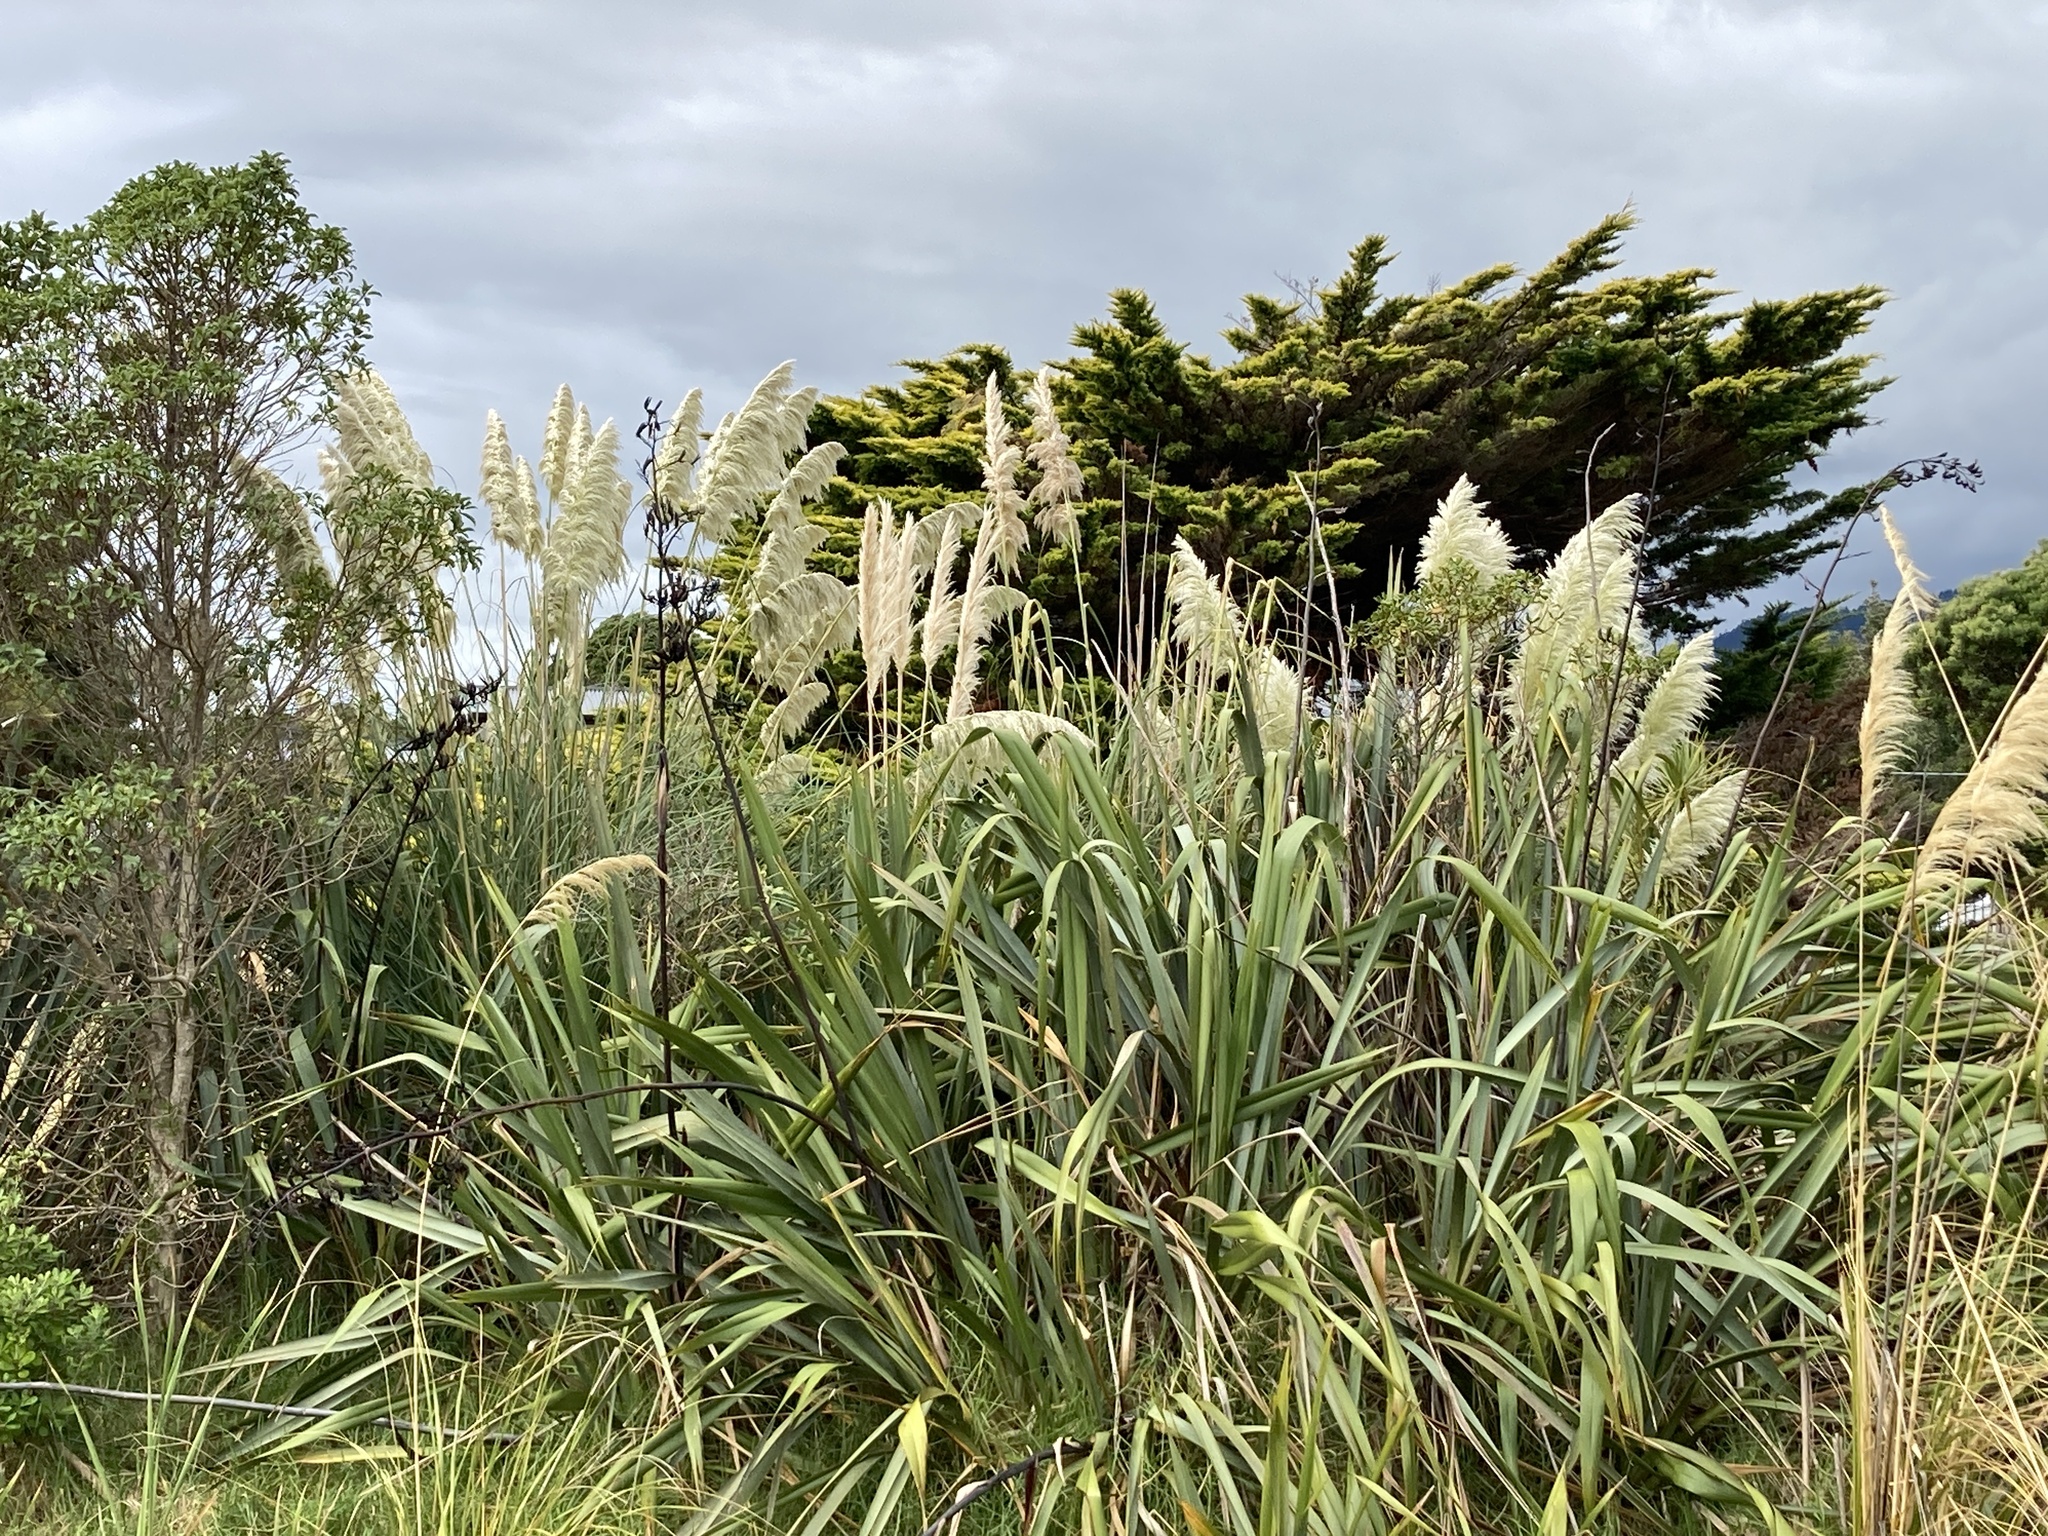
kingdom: Plantae
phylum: Tracheophyta
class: Liliopsida
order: Poales
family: Poaceae
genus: Cortaderia
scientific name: Cortaderia selloana
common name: Uruguayan pampas grass
